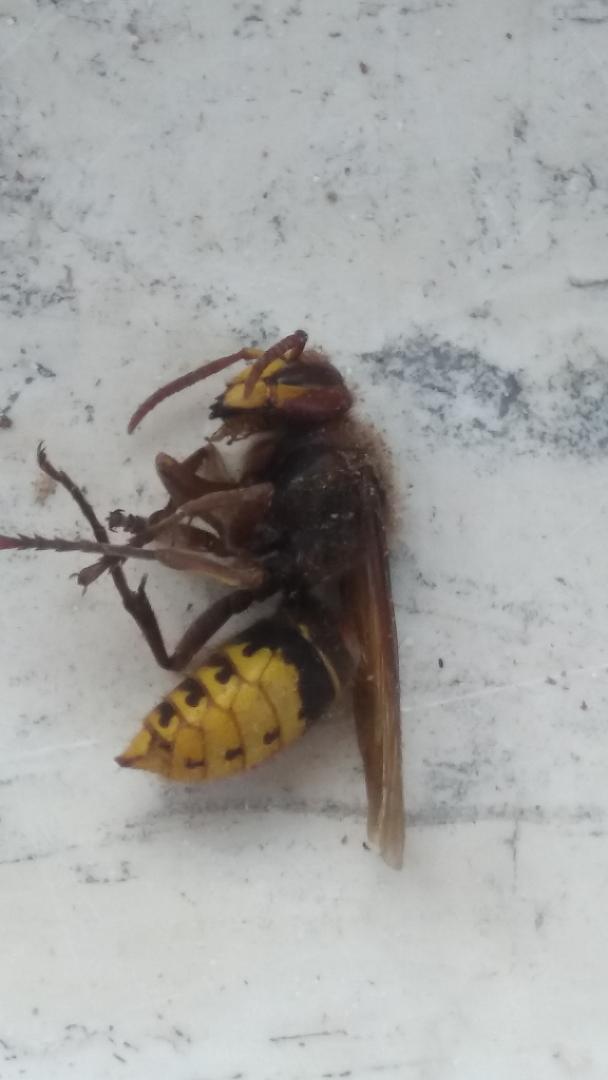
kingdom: Animalia
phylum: Arthropoda
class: Insecta
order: Hymenoptera
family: Vespidae
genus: Vespa
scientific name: Vespa crabro
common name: Hornet
